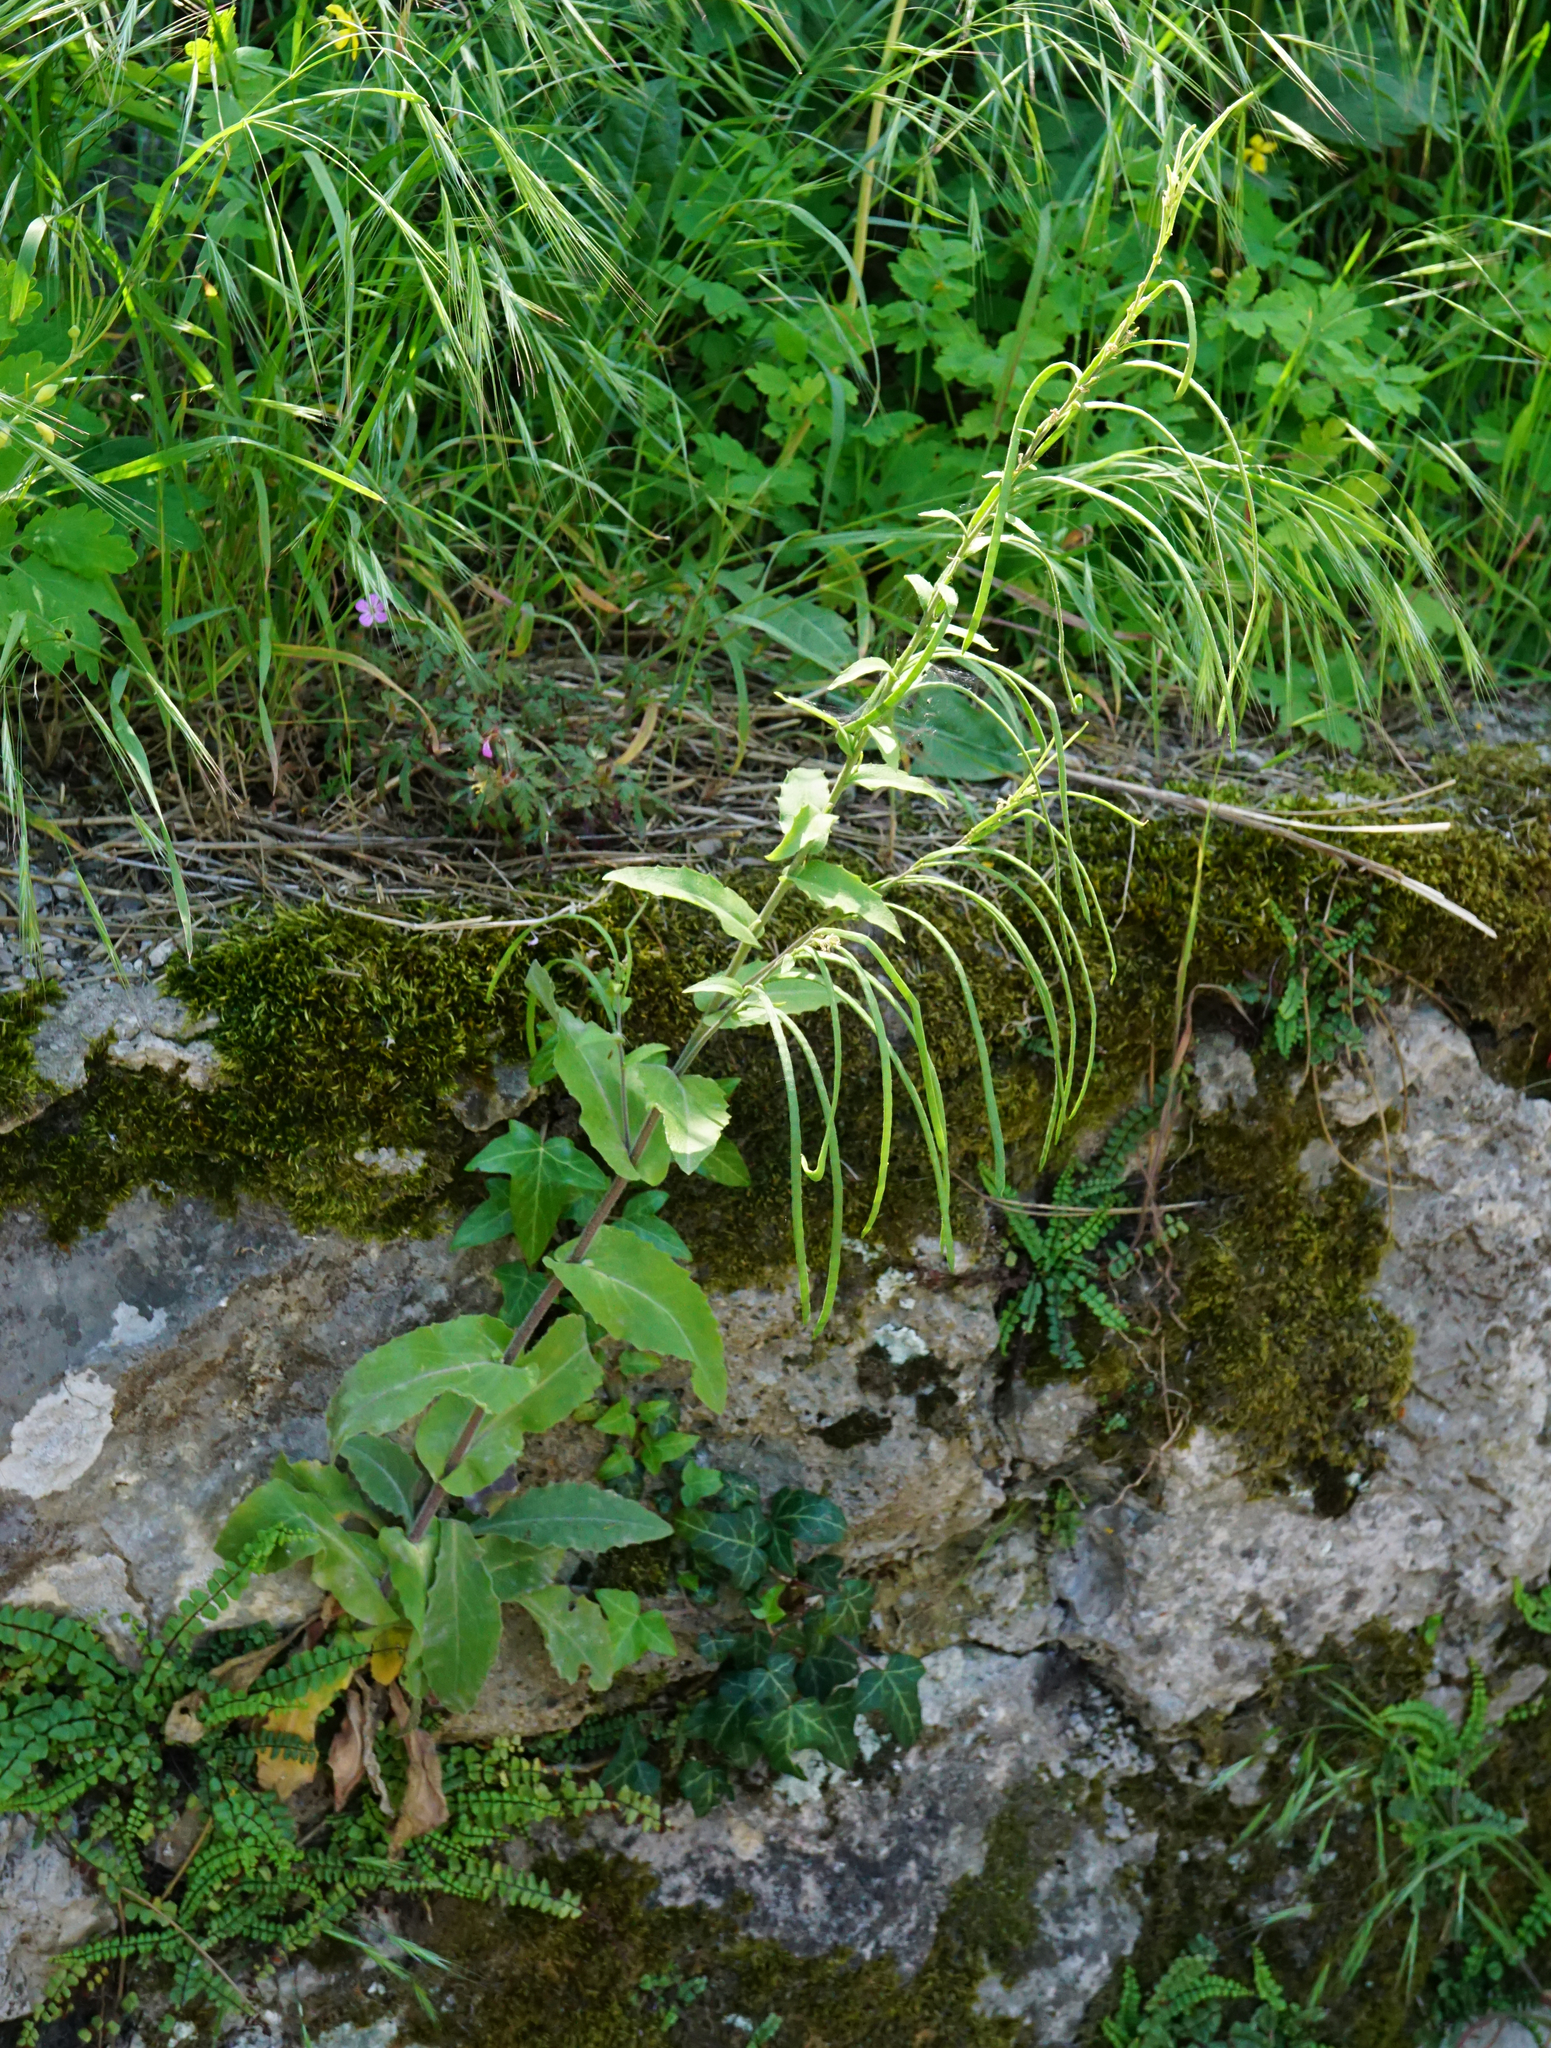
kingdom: Plantae
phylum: Tracheophyta
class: Magnoliopsida
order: Brassicales
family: Brassicaceae
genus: Pseudoturritis
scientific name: Pseudoturritis turrita
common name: Tower cress
